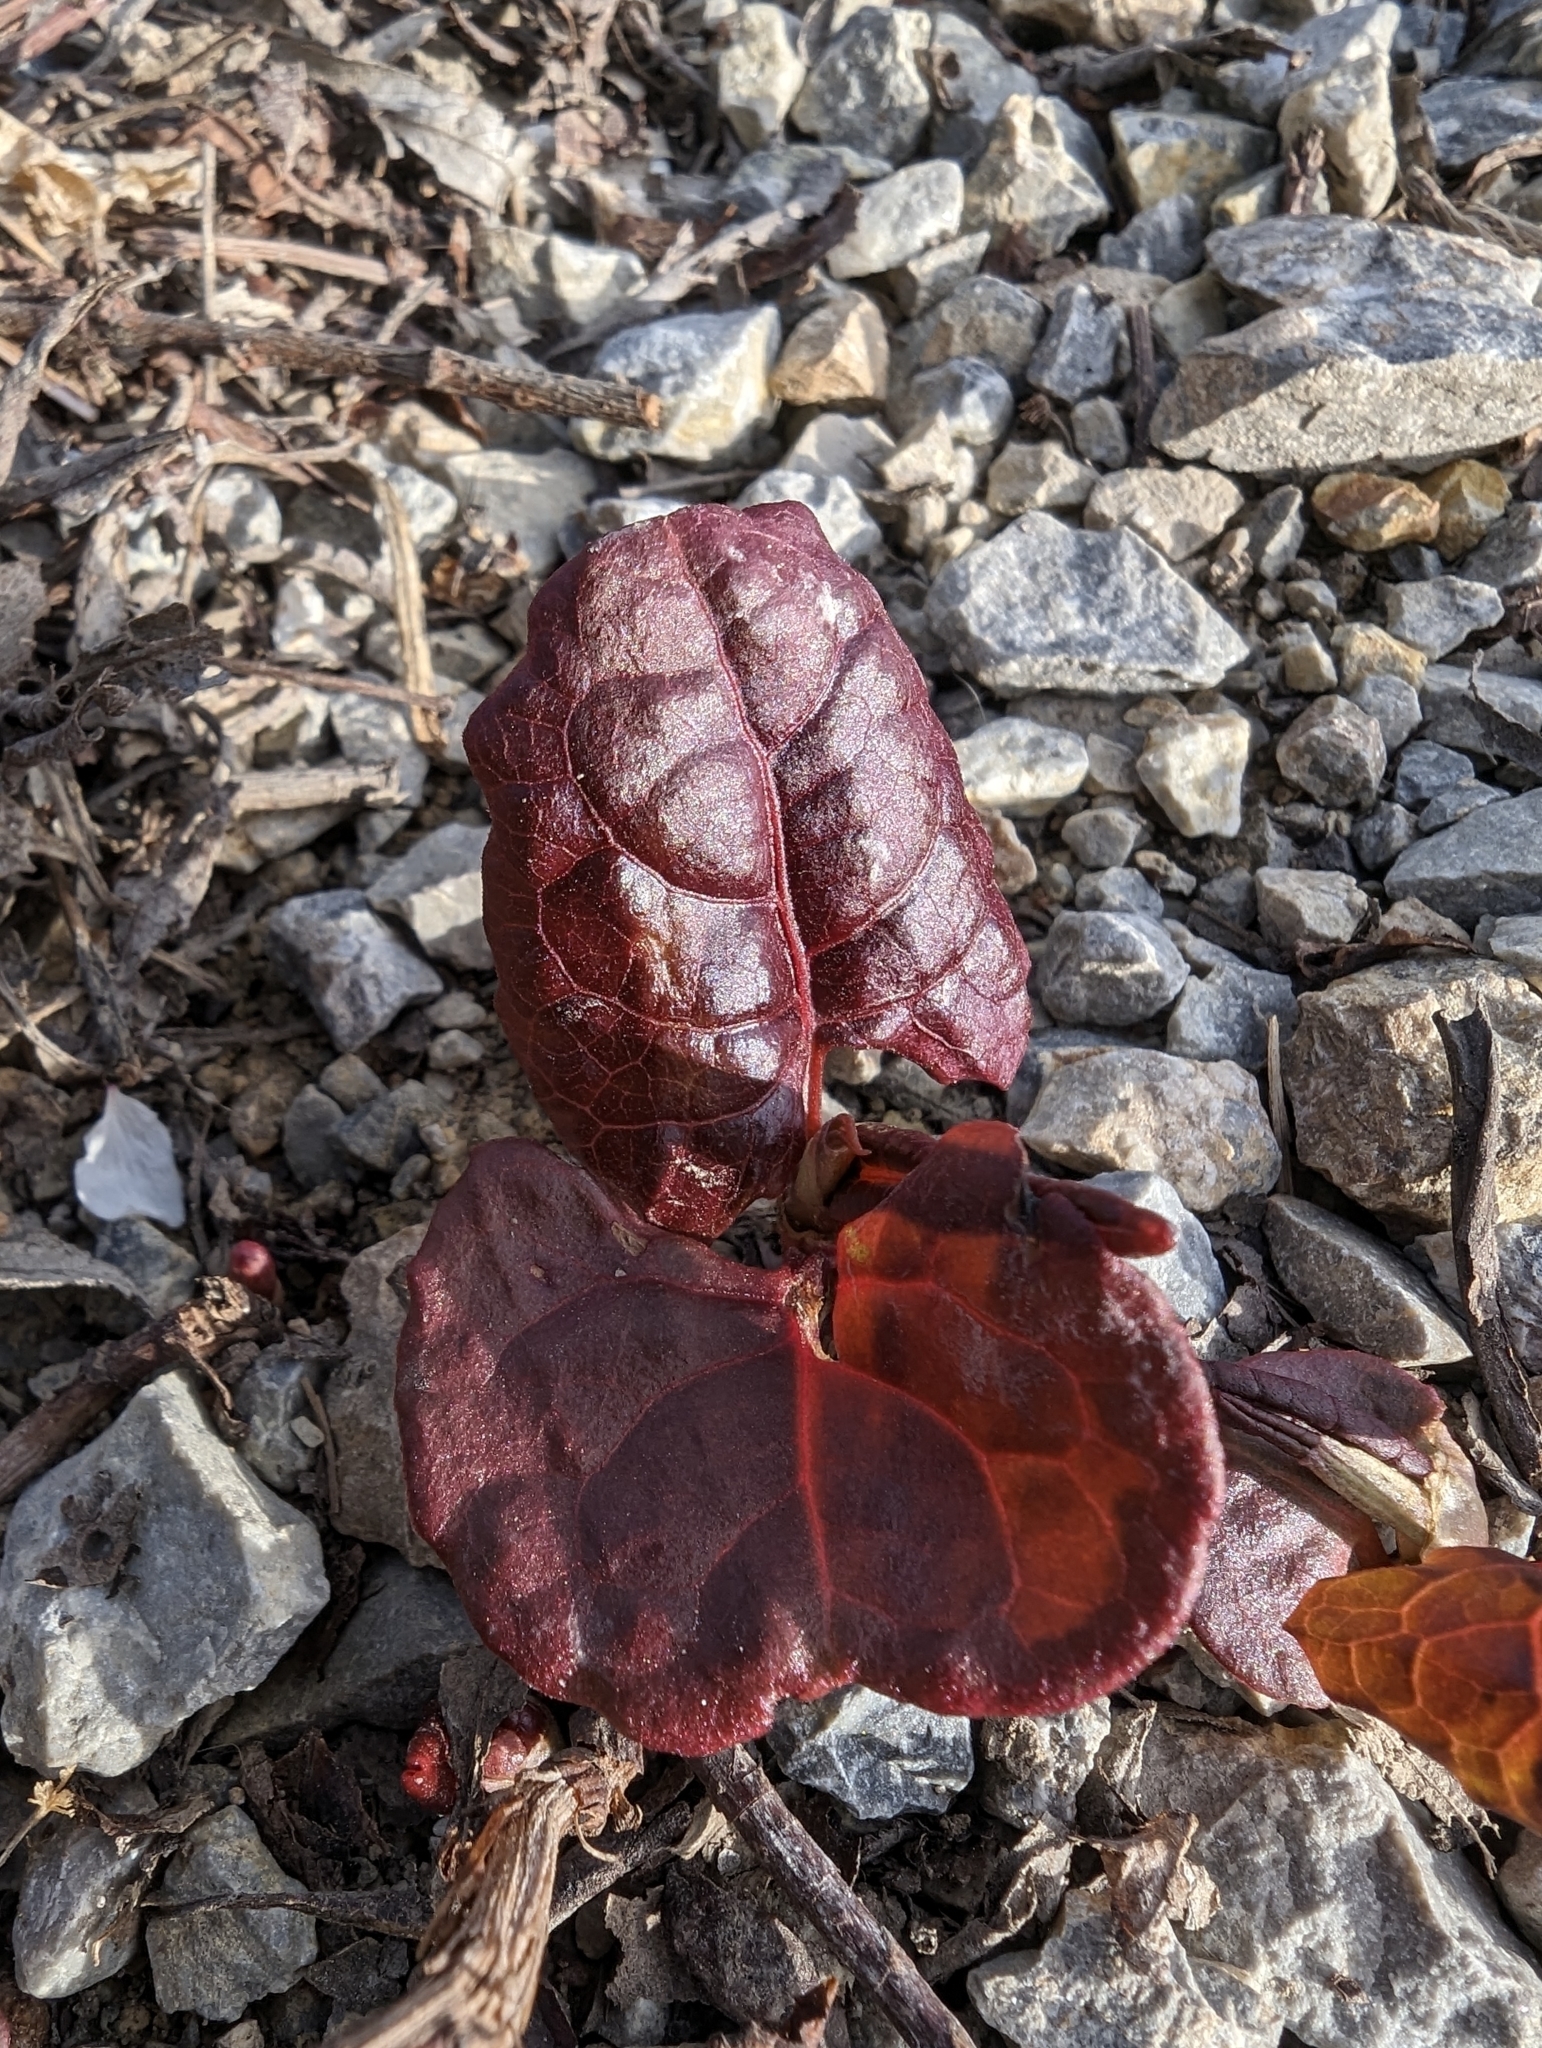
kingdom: Plantae
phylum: Tracheophyta
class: Magnoliopsida
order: Caryophyllales
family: Polygonaceae
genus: Reynoutria
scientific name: Reynoutria sachalinensis
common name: Giant knotweed
